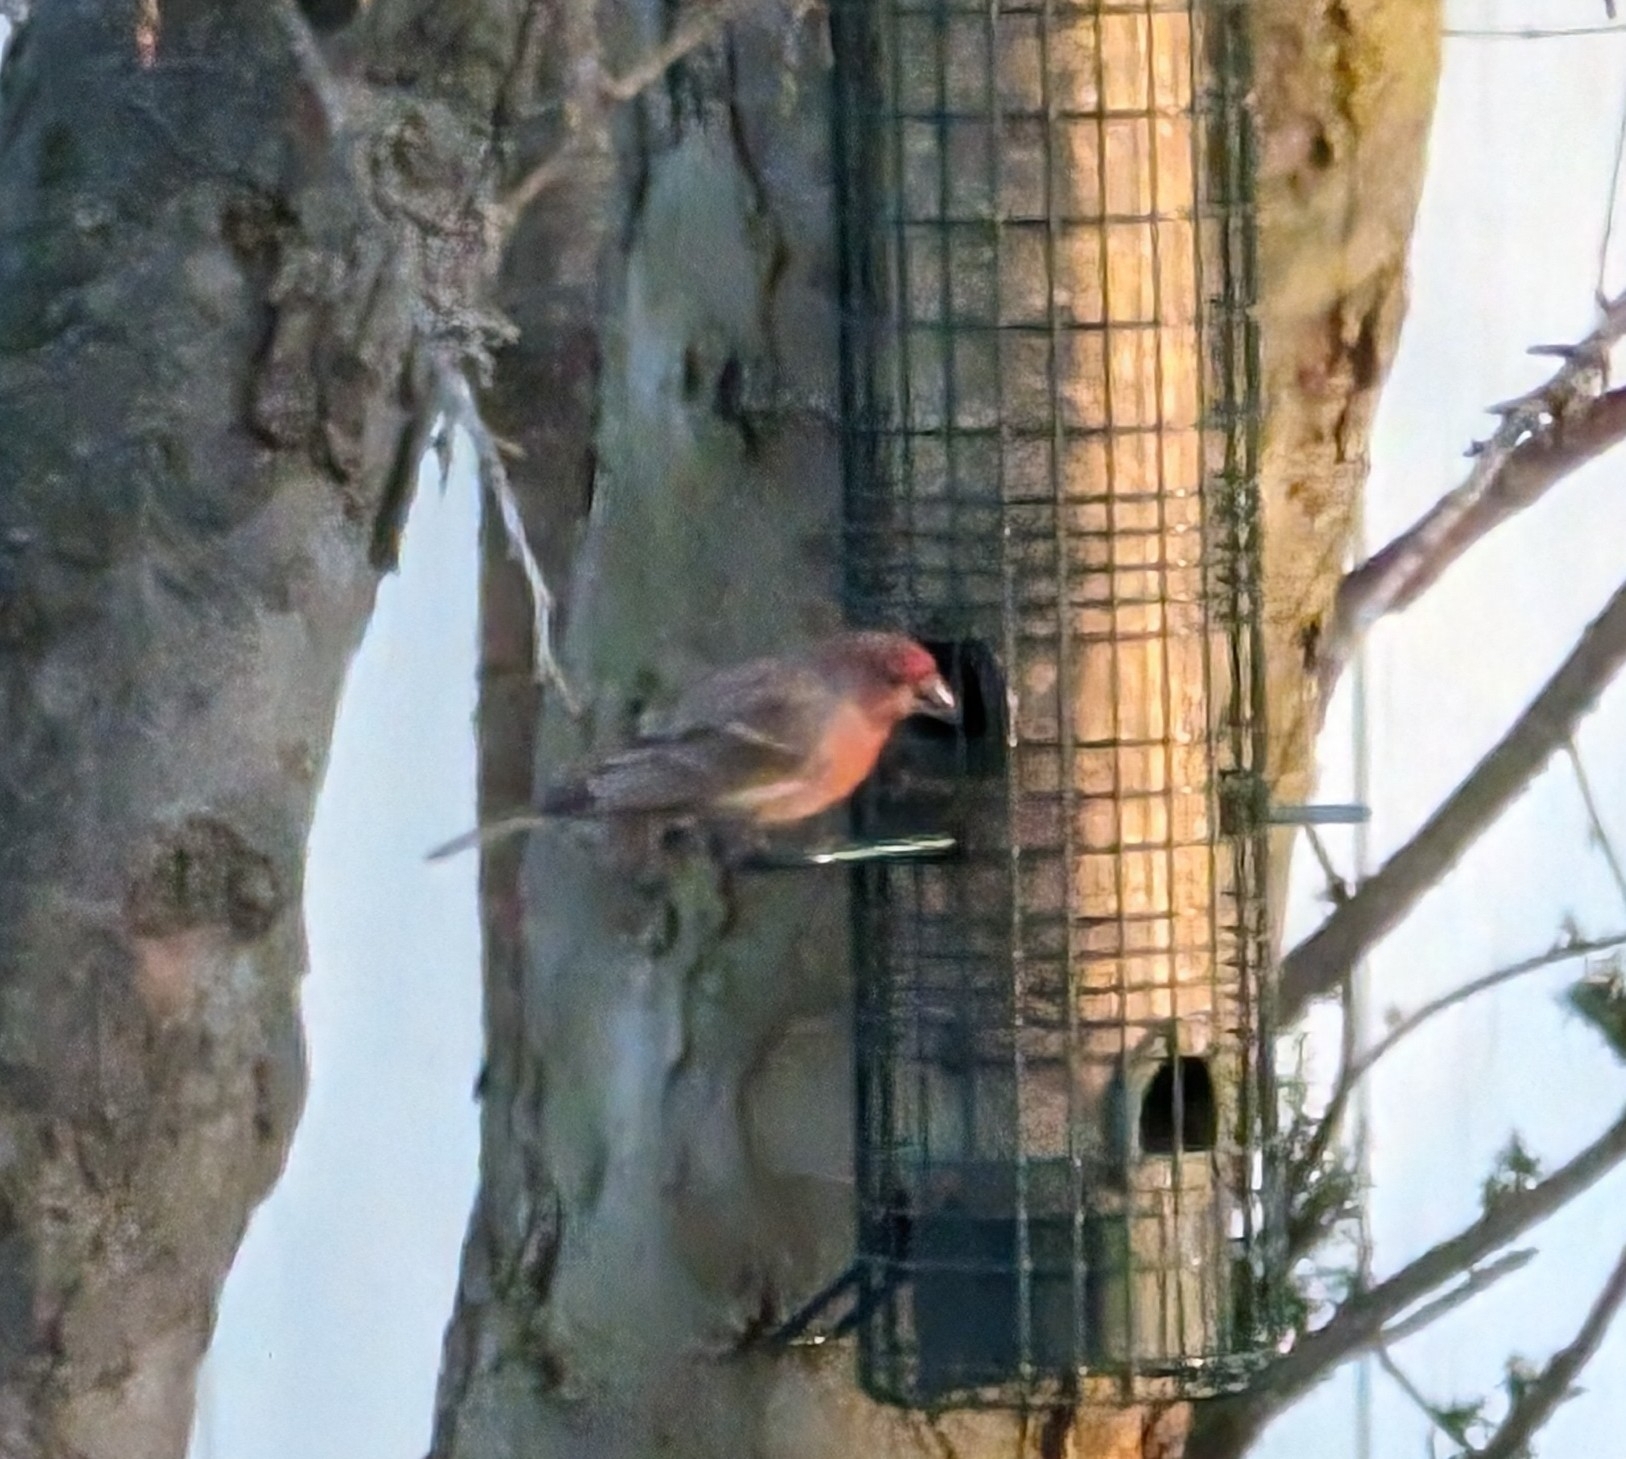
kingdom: Animalia
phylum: Chordata
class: Aves
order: Passeriformes
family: Fringillidae
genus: Haemorhous
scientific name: Haemorhous mexicanus
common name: House finch
